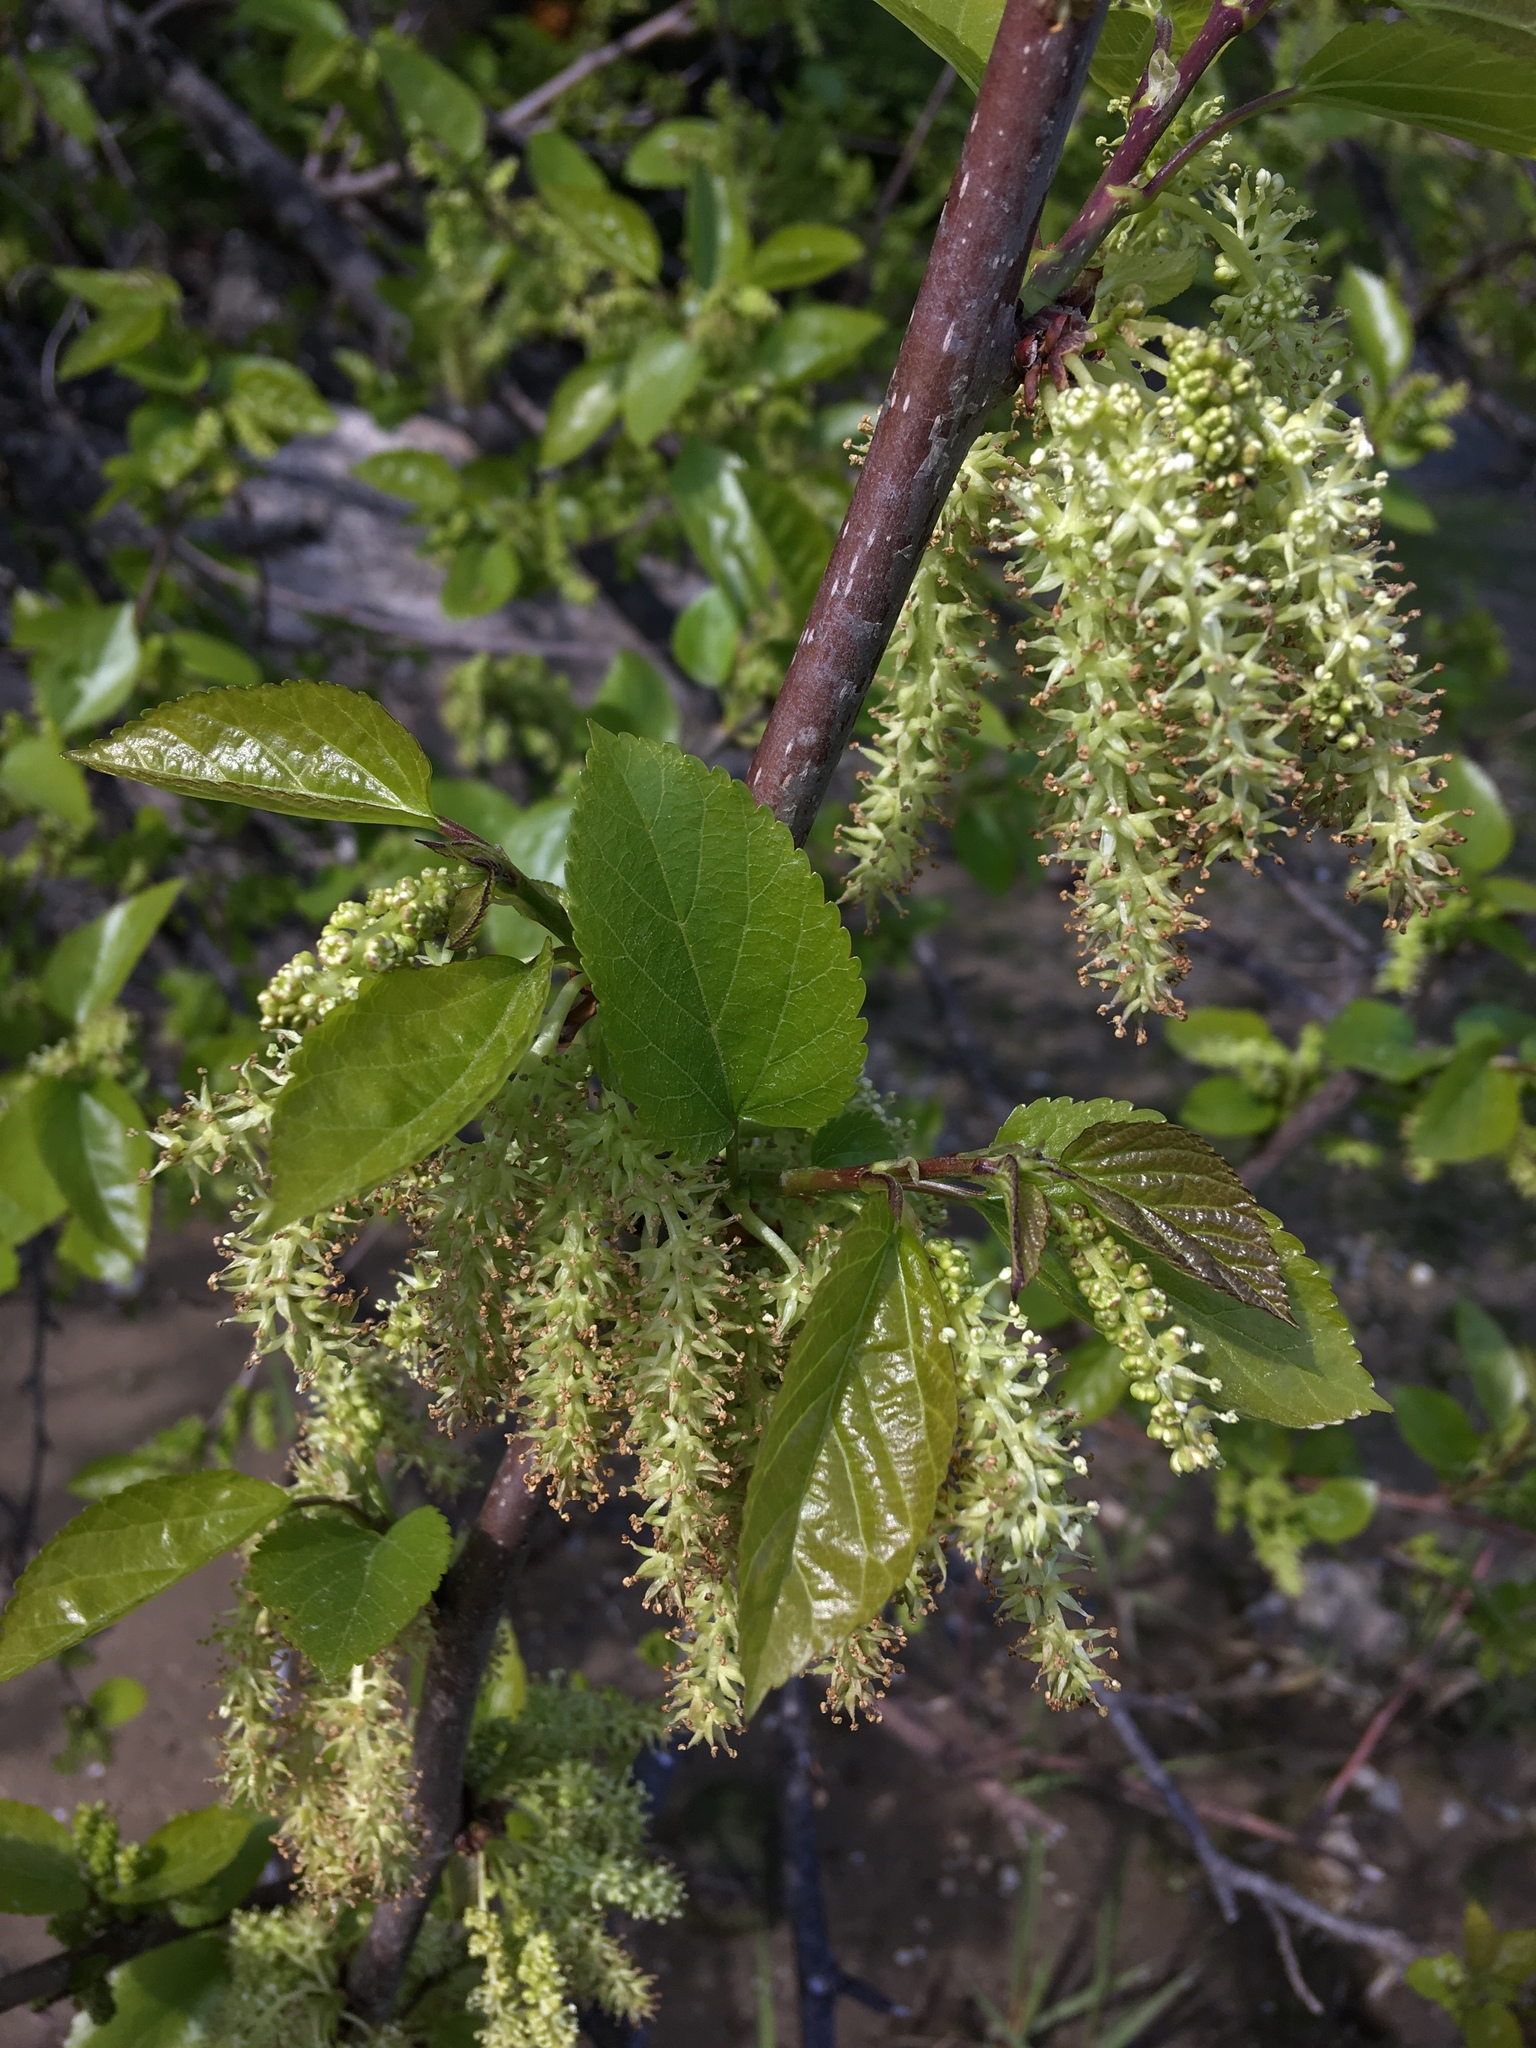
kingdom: Plantae
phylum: Tracheophyta
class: Magnoliopsida
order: Rosales
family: Moraceae
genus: Morus
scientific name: Morus alba
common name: White mulberry
